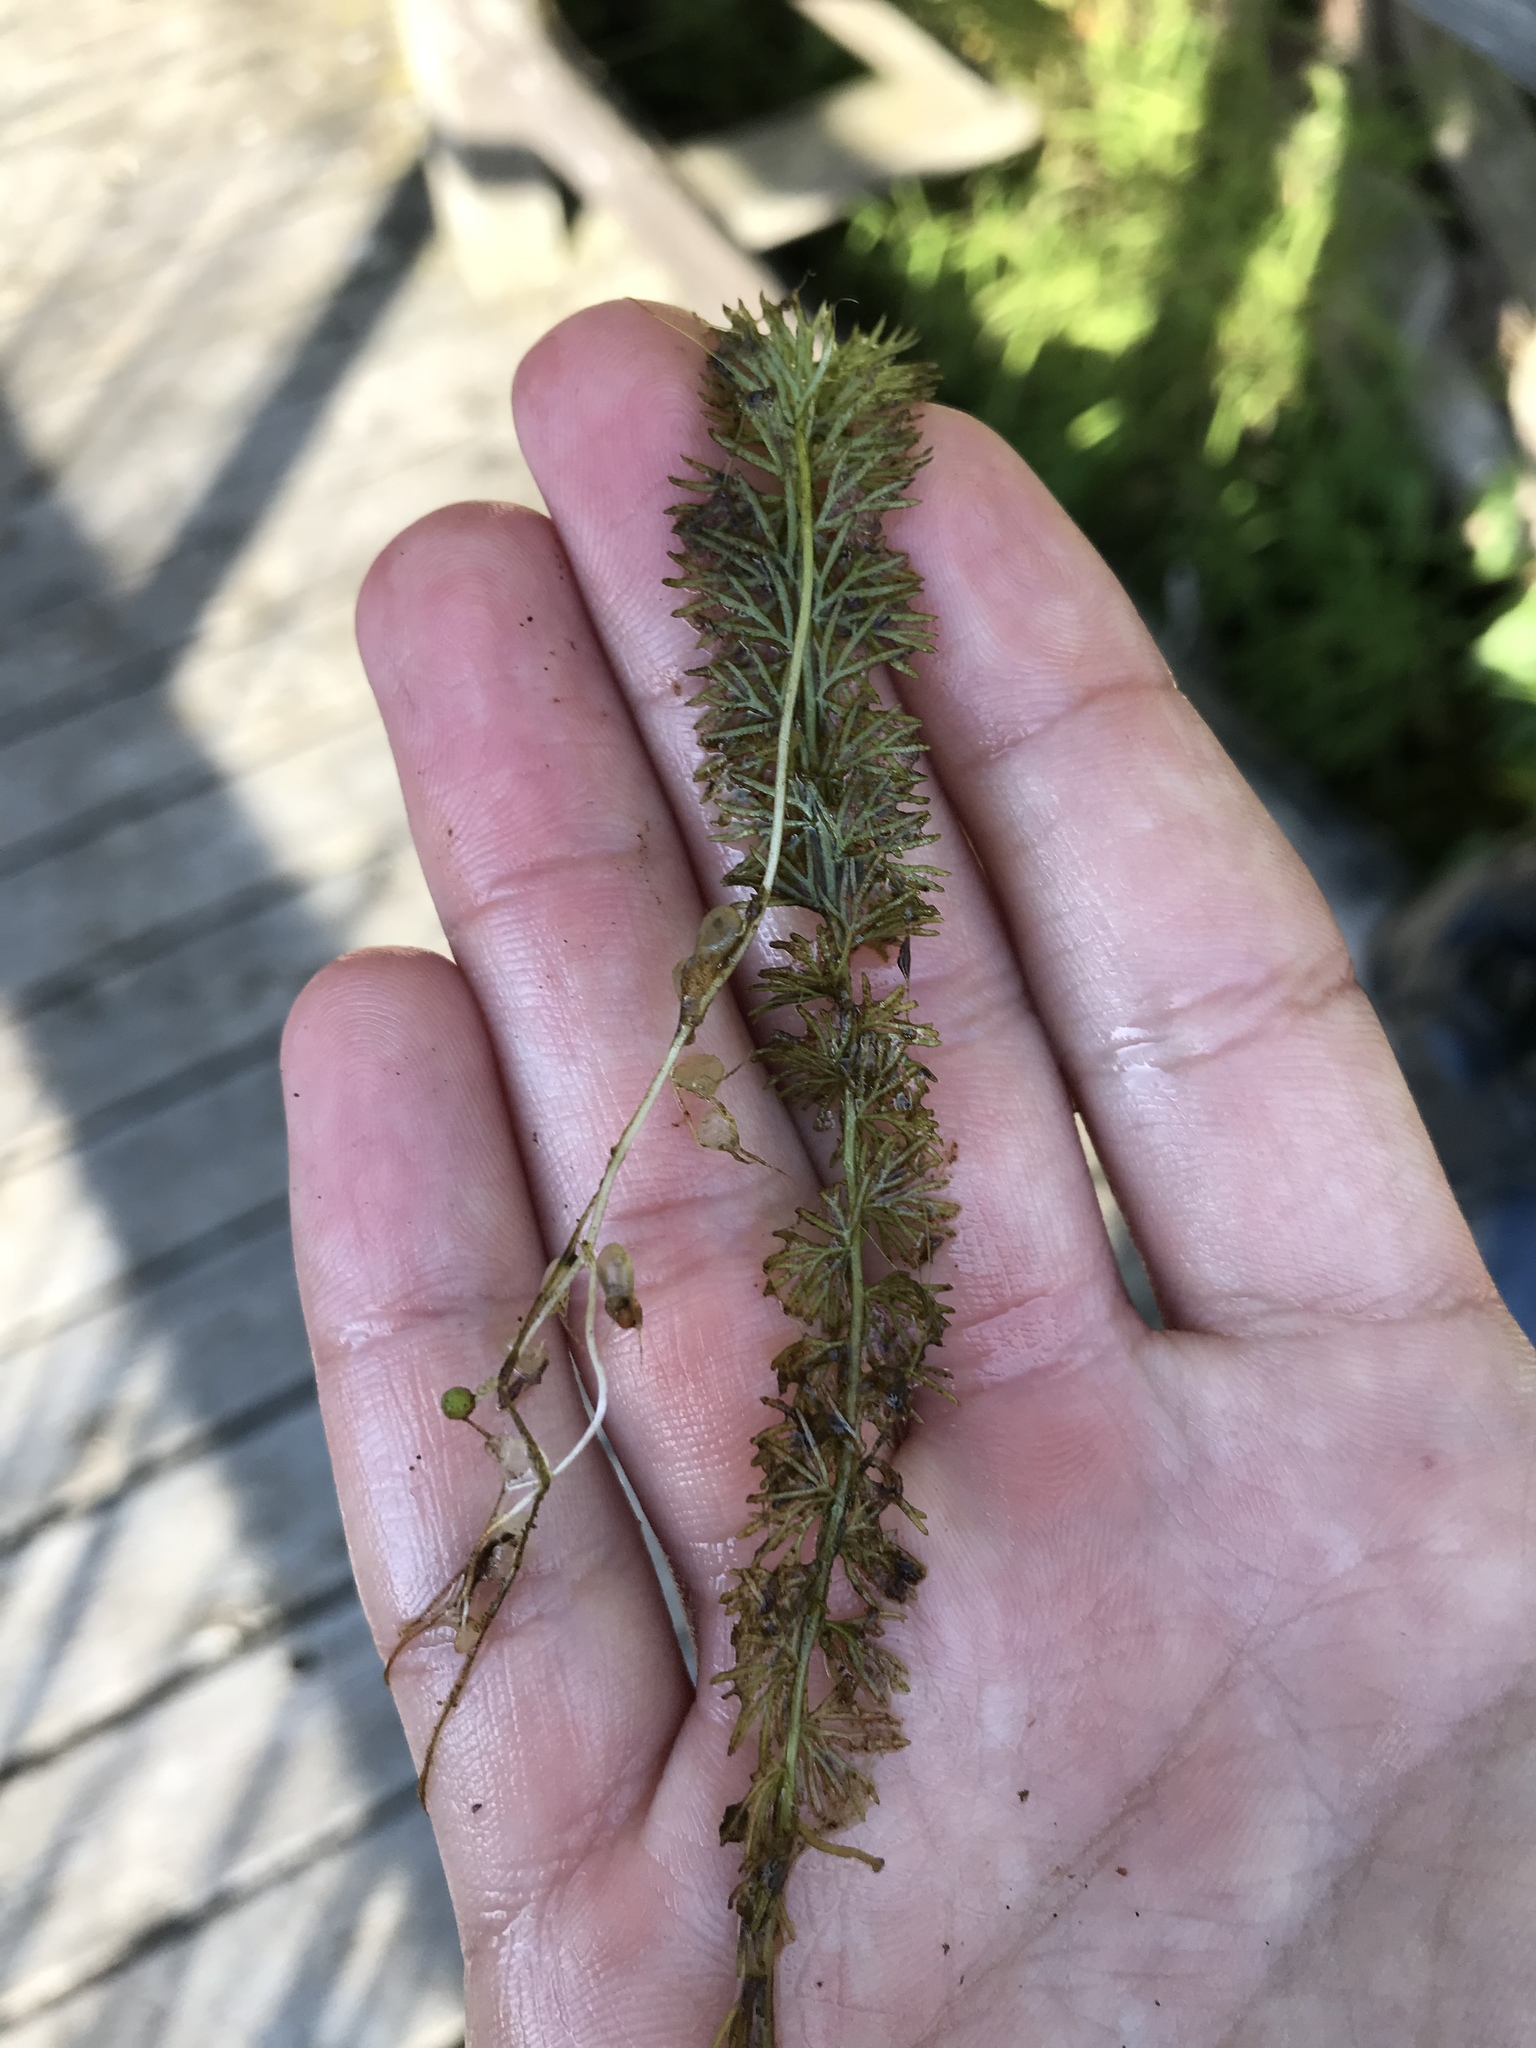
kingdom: Plantae
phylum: Tracheophyta
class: Magnoliopsida
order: Lamiales
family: Lentibulariaceae
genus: Utricularia
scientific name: Utricularia intermedia
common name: Intermediate bladderwort
